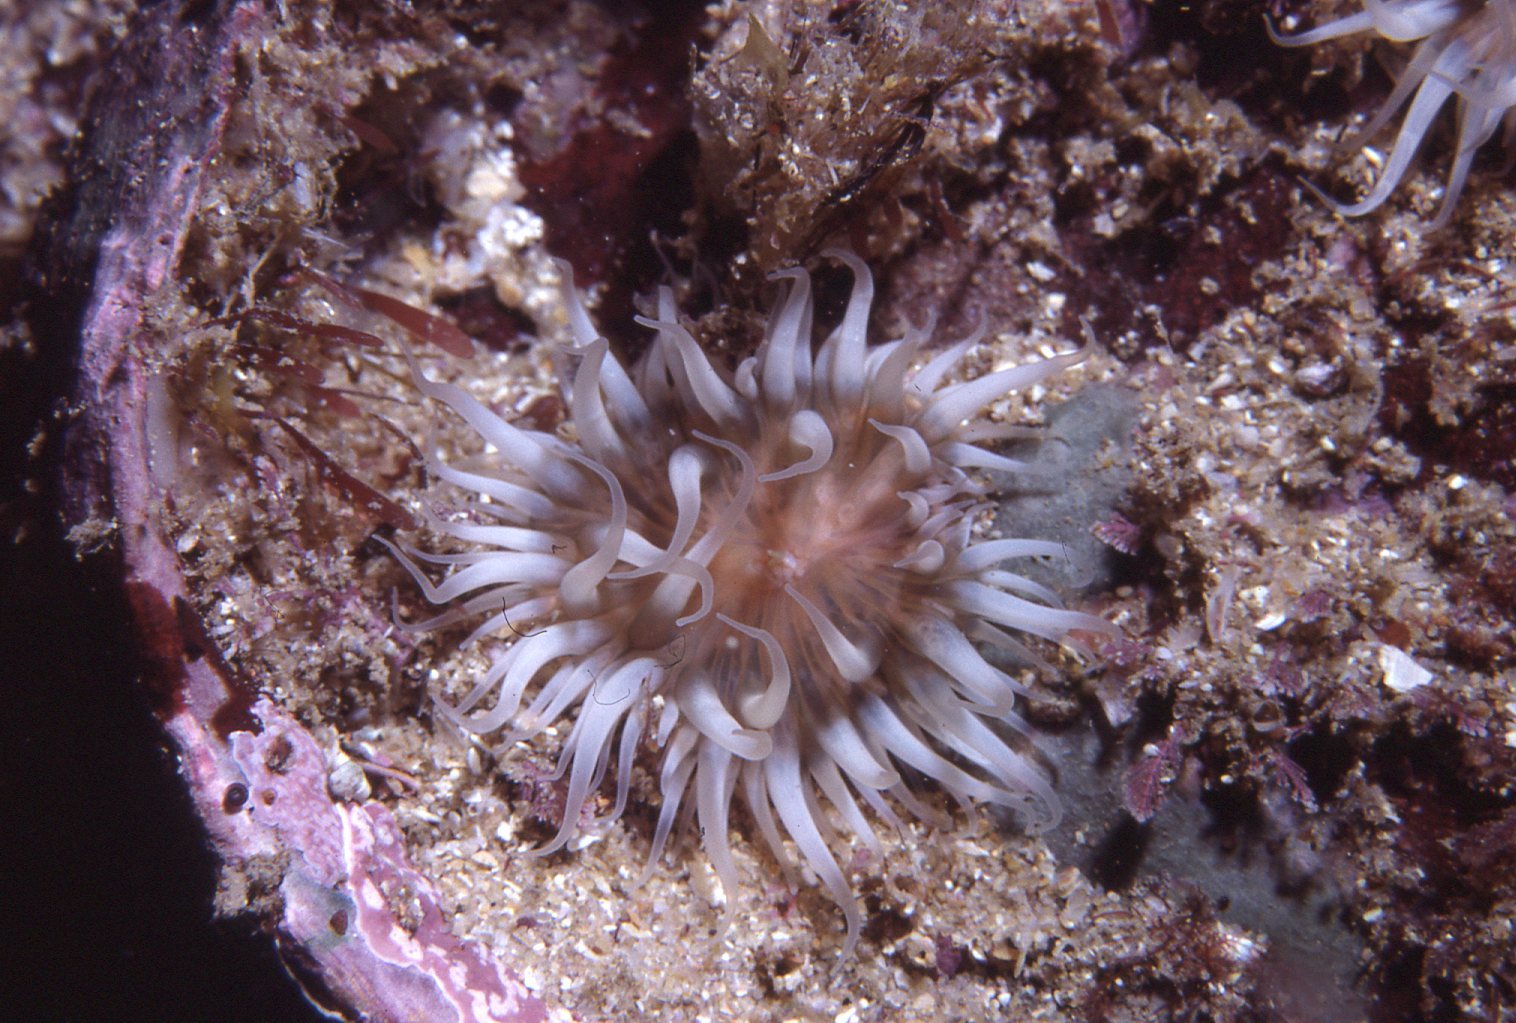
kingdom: Animalia
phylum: Cnidaria
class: Anthozoa
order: Actiniaria
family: Sagartiidae
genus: Anthothoe
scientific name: Anthothoe albocincta
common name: Orange striped anemone
